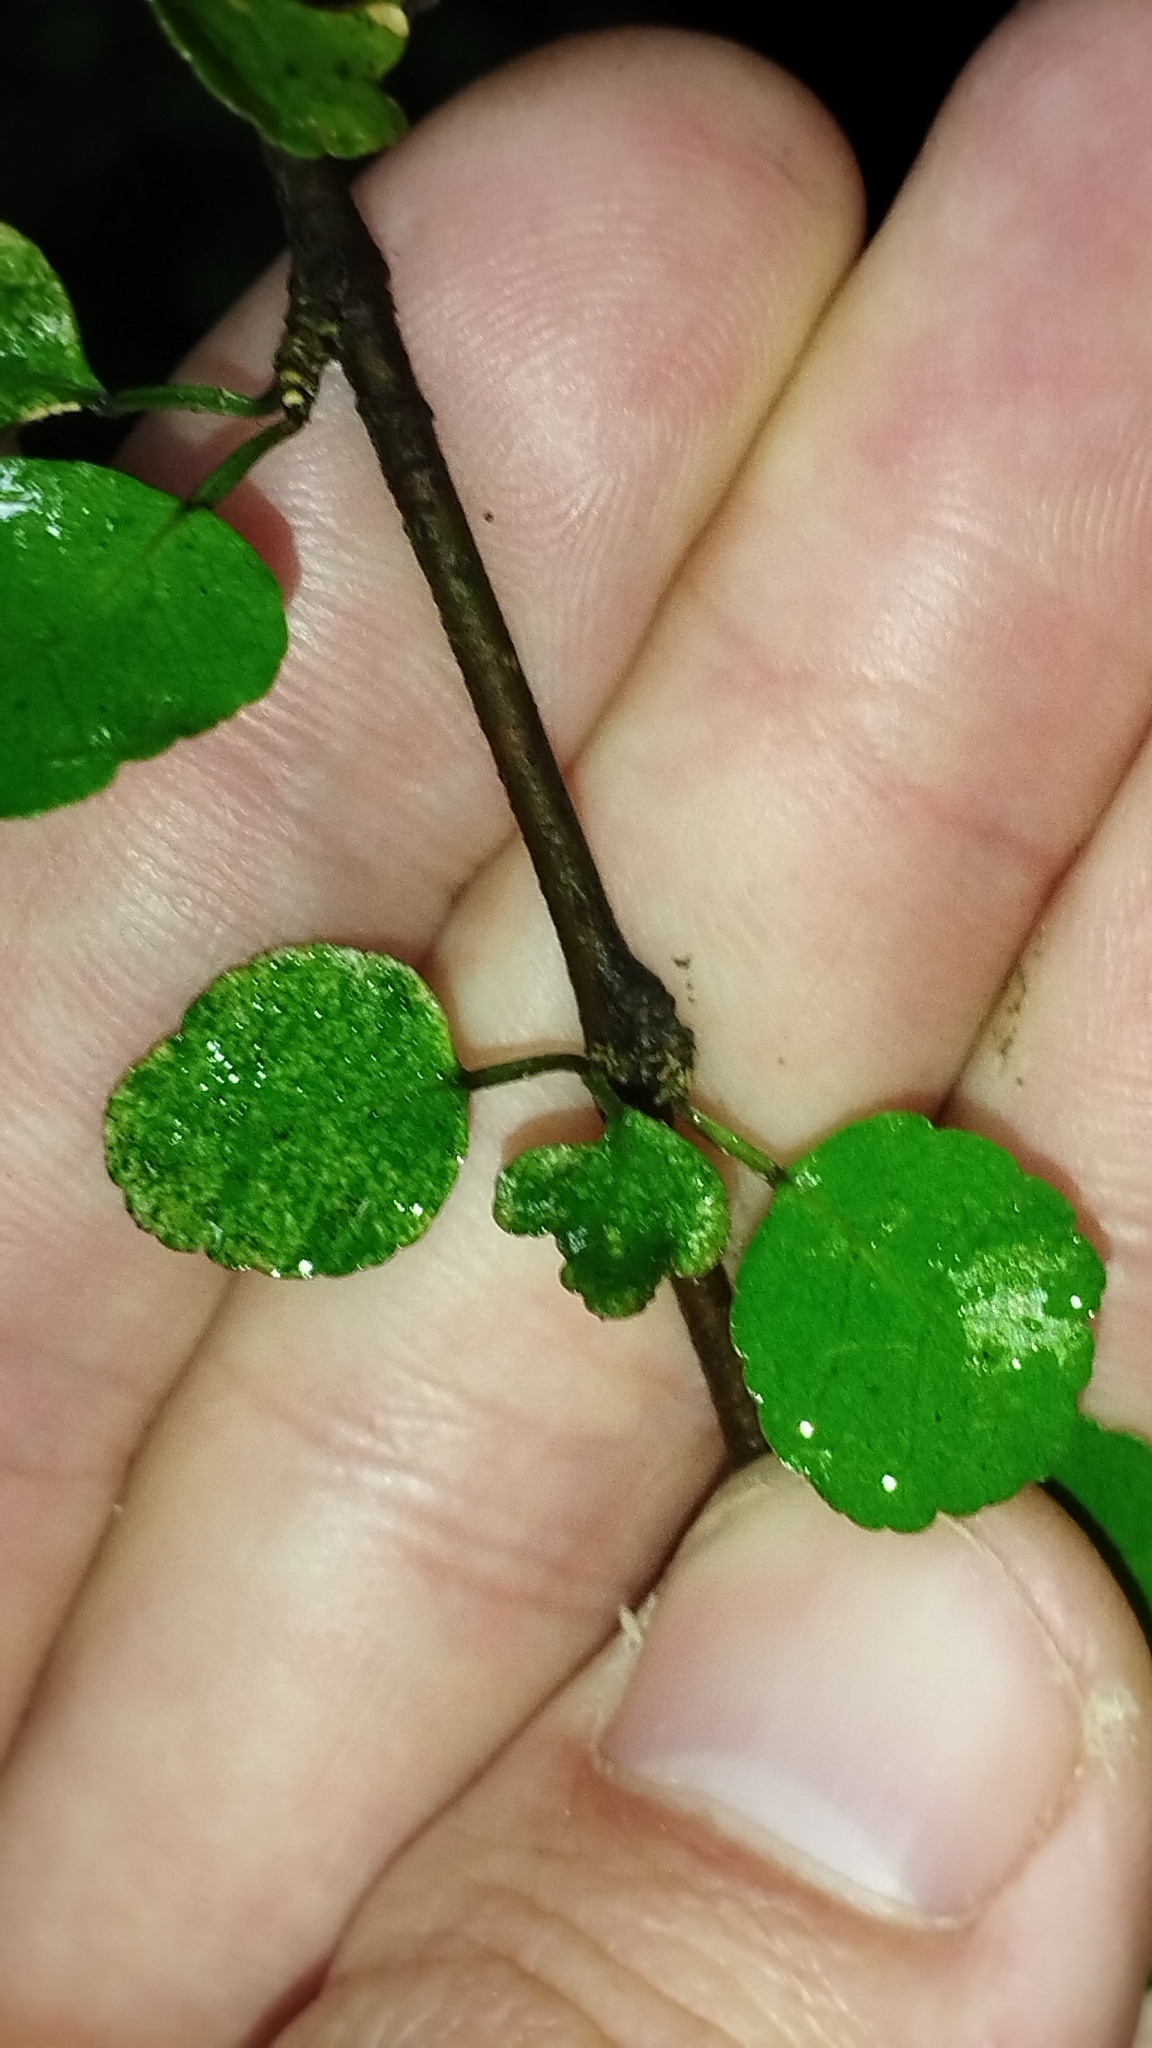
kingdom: Plantae
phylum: Tracheophyta
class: Magnoliopsida
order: Sapindales
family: Rutaceae
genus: Melicope
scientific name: Melicope simplex
